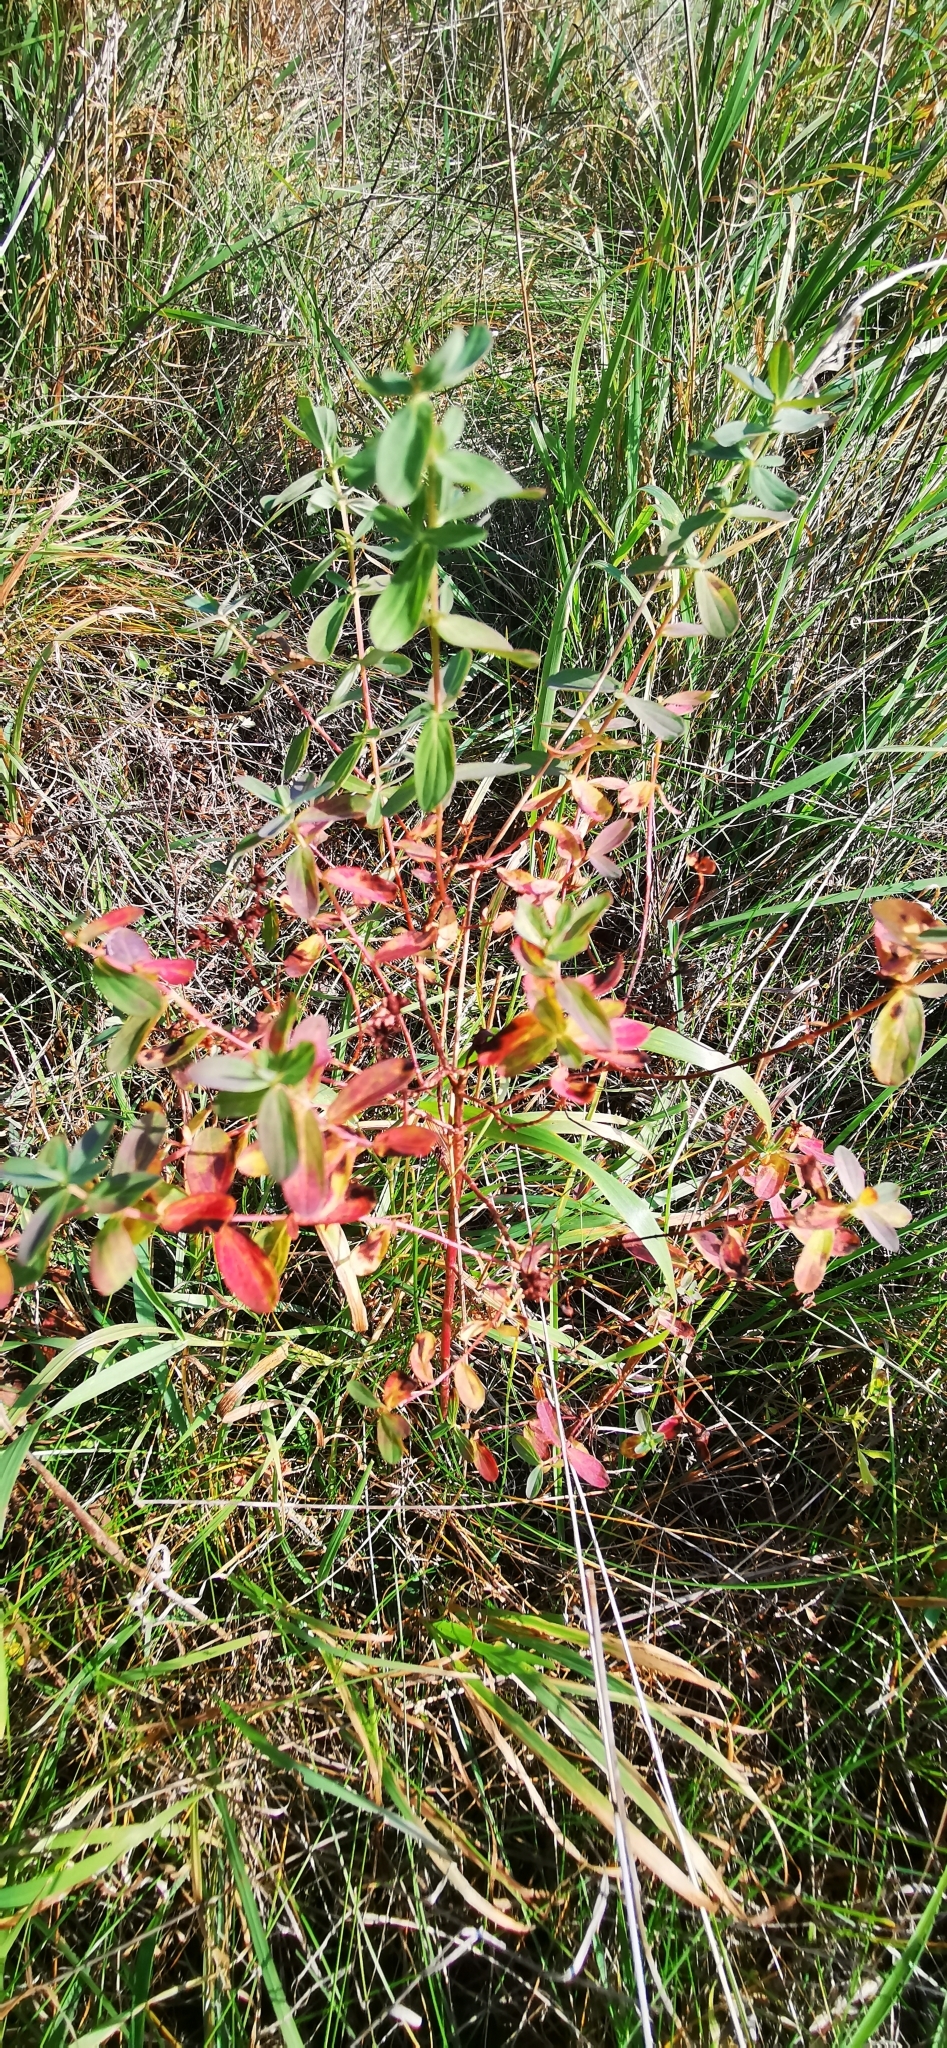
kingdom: Plantae
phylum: Tracheophyta
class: Magnoliopsida
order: Malpighiales
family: Hypericaceae
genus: Hypericum
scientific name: Hypericum perforatum
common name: Common st. johnswort
